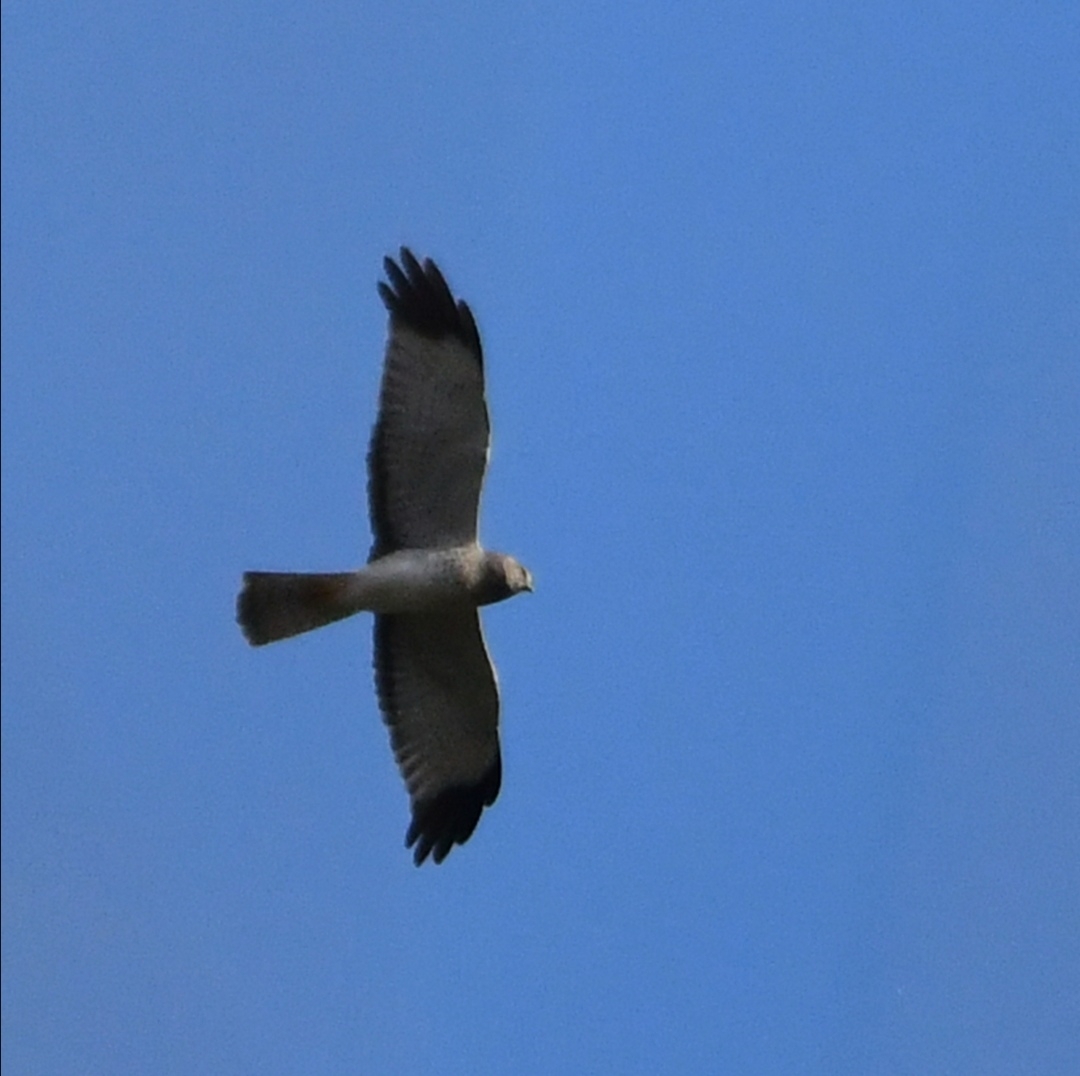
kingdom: Animalia
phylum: Chordata
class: Aves
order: Accipitriformes
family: Accipitridae
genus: Circus
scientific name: Circus cyaneus
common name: Hen harrier
